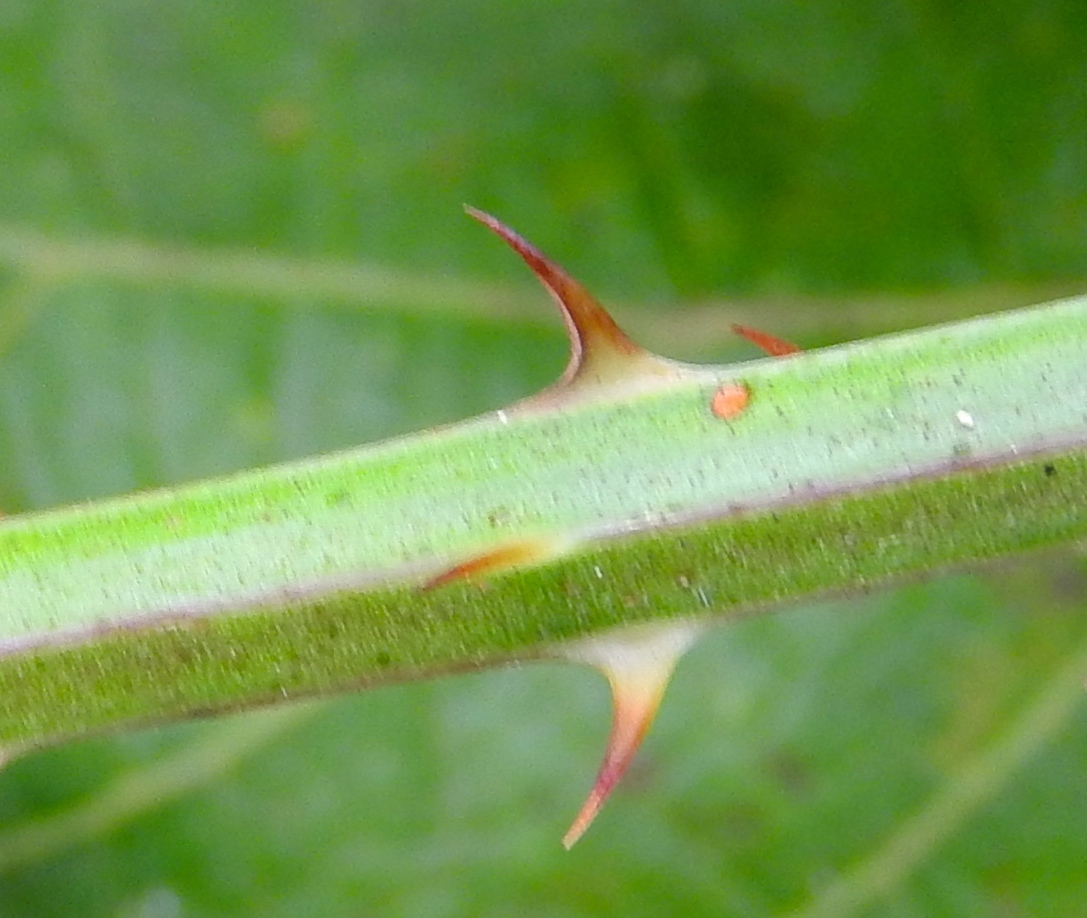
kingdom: Plantae
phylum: Tracheophyta
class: Magnoliopsida
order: Fabales
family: Fabaceae
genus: Mimosa
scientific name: Mimosa pudica
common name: Sensitive plant
